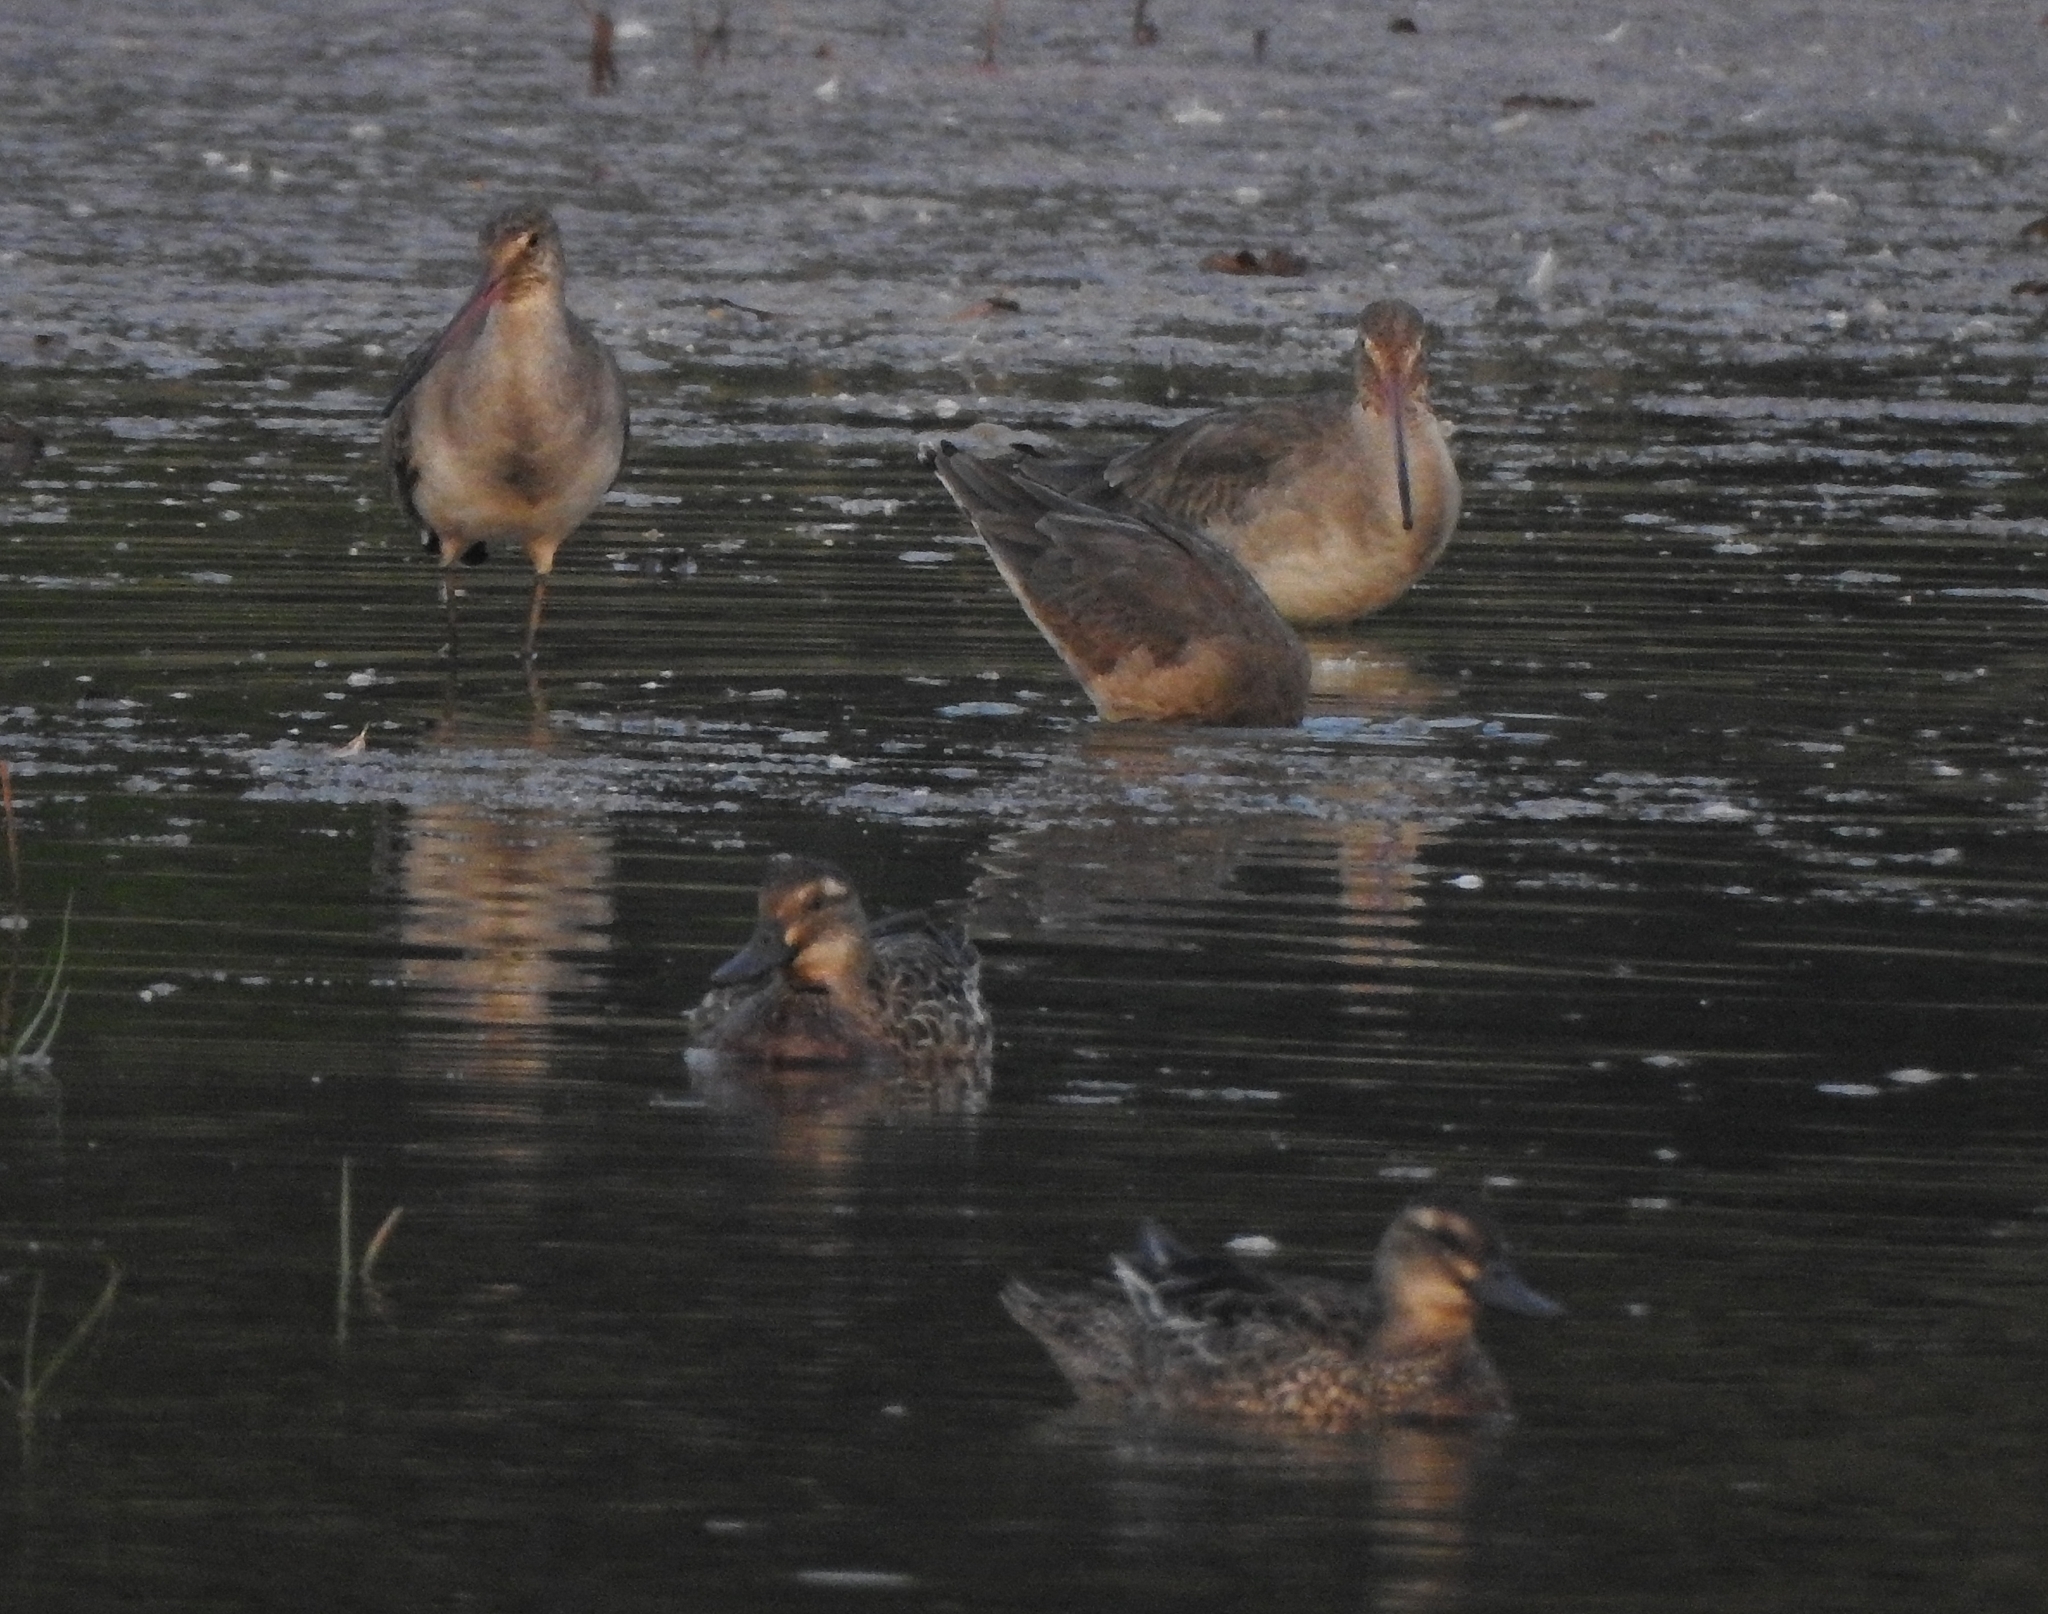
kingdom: Animalia
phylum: Chordata
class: Aves
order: Charadriiformes
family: Scolopacidae
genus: Limosa
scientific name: Limosa limosa
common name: Black-tailed godwit
